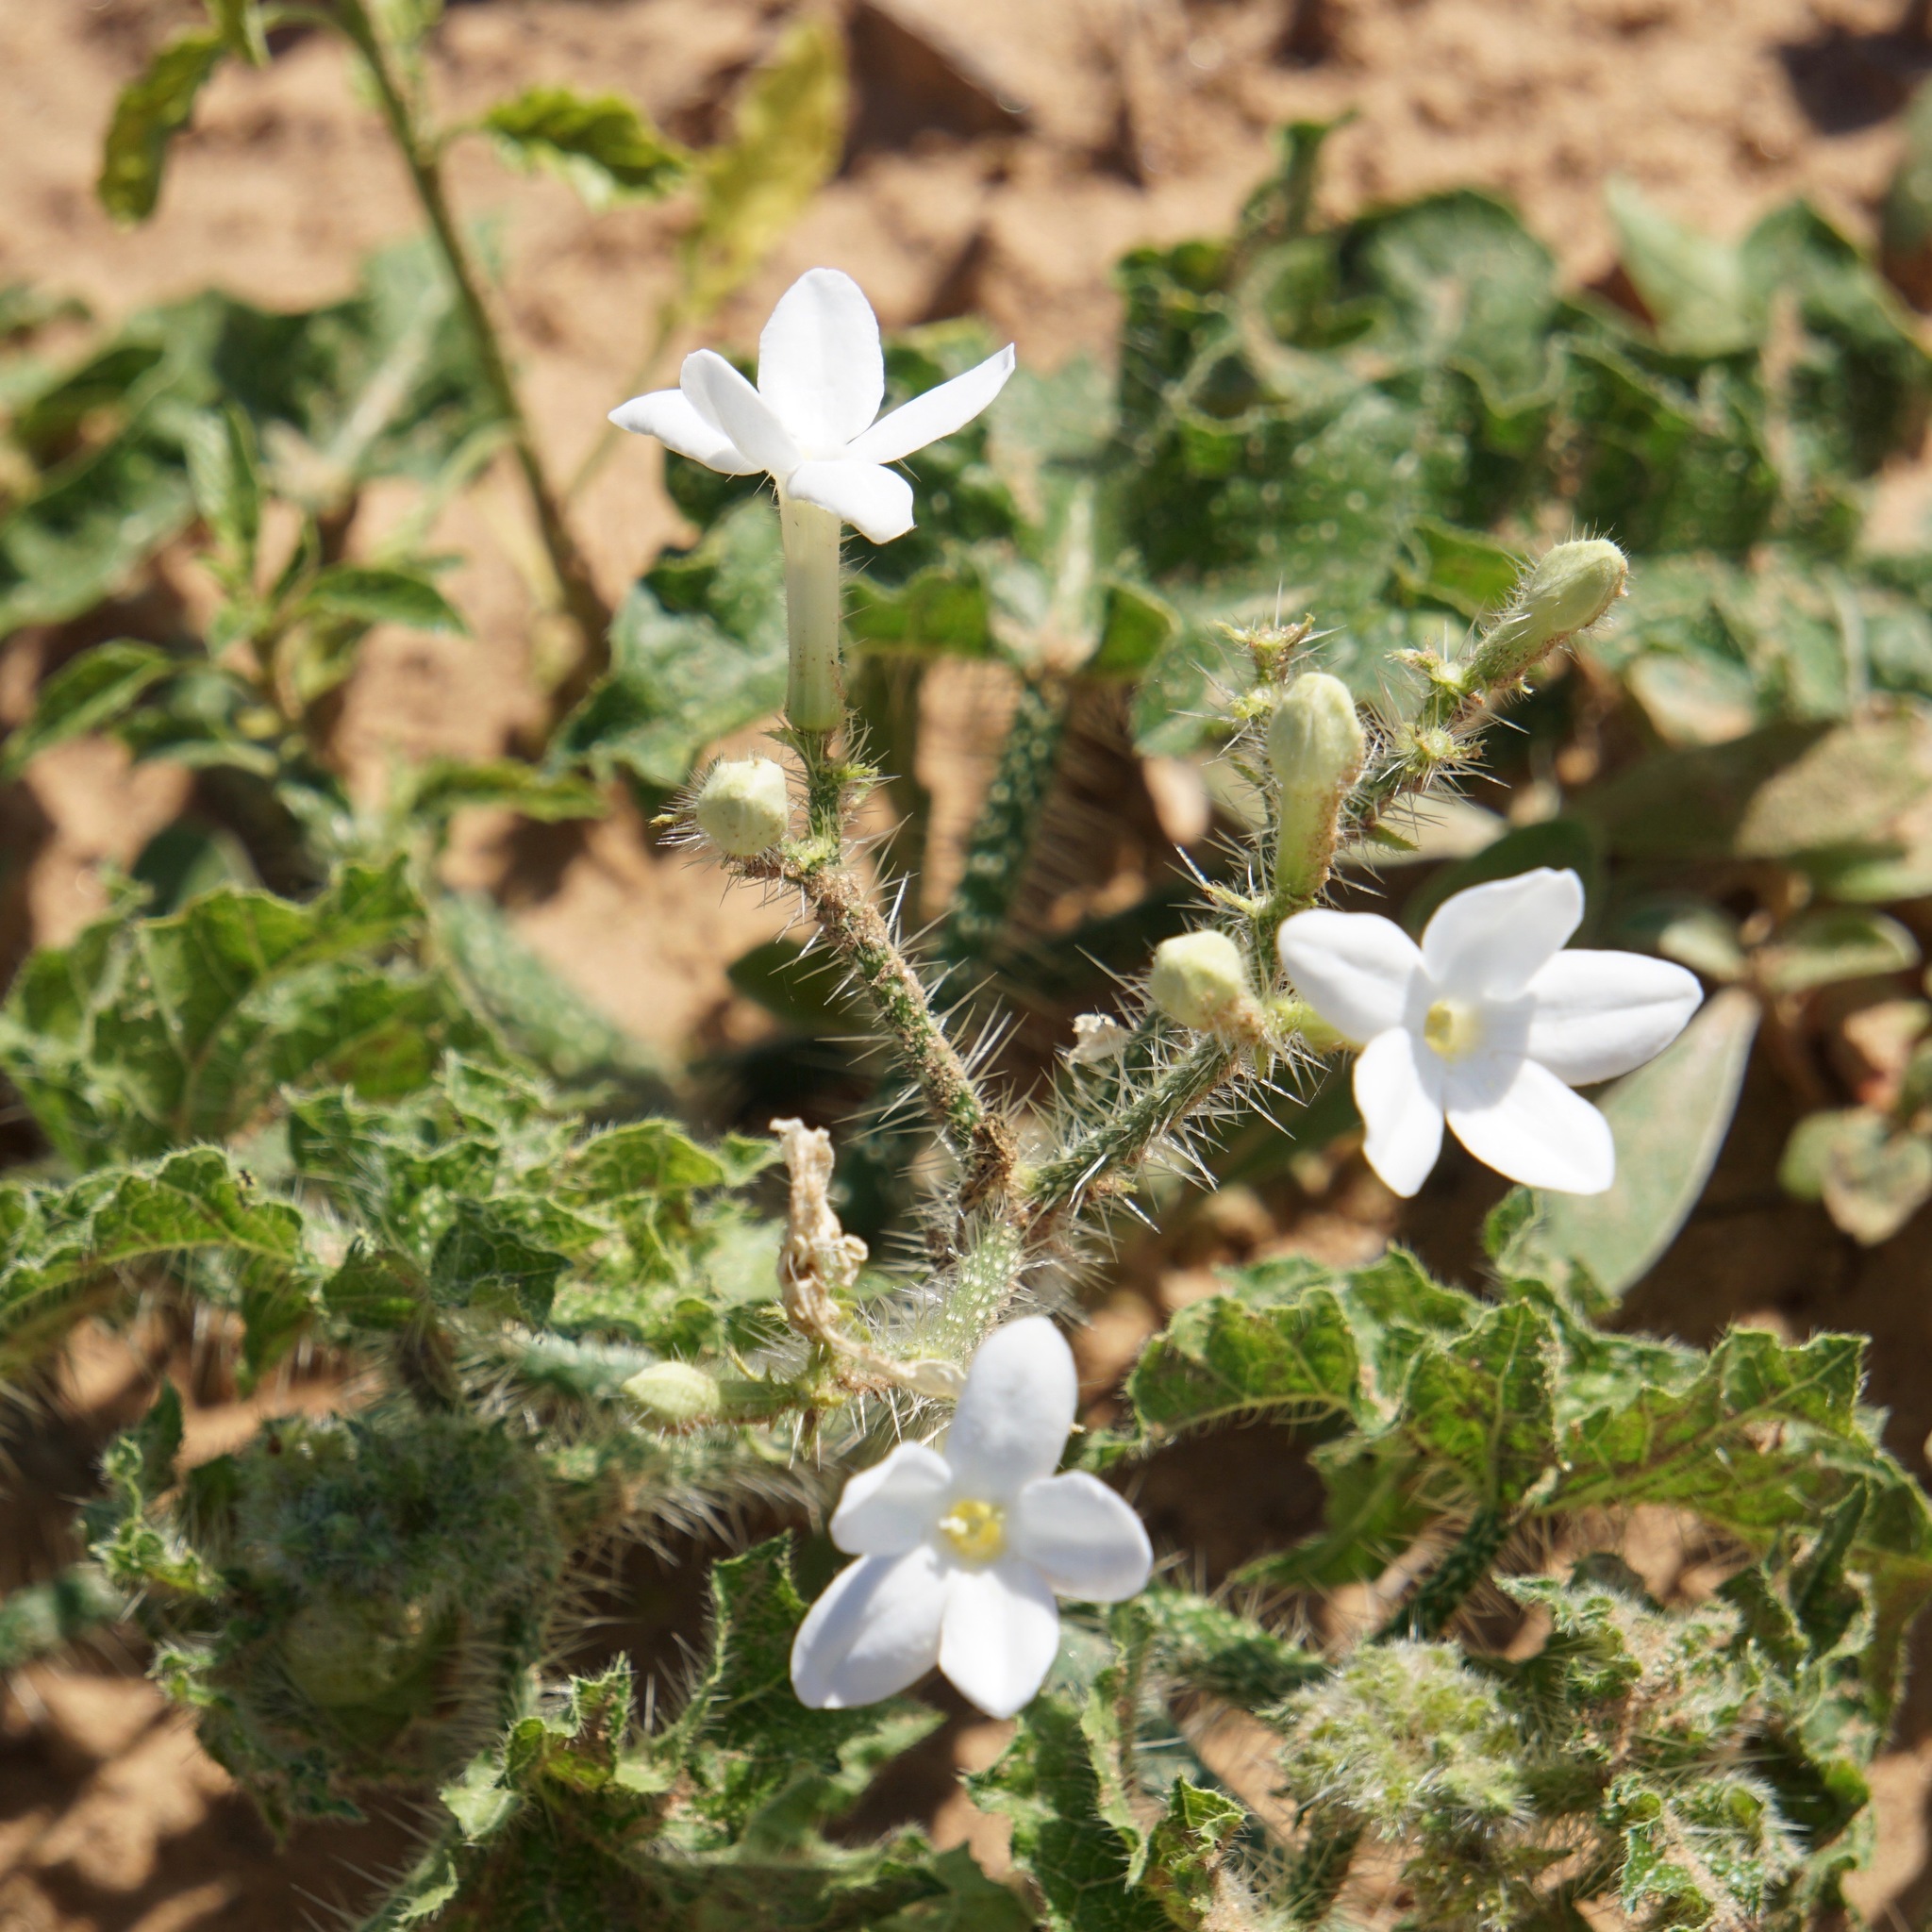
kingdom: Plantae
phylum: Tracheophyta
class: Magnoliopsida
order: Malpighiales
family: Euphorbiaceae
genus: Cnidoscolus
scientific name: Cnidoscolus texanus
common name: Texas bull-nettle
